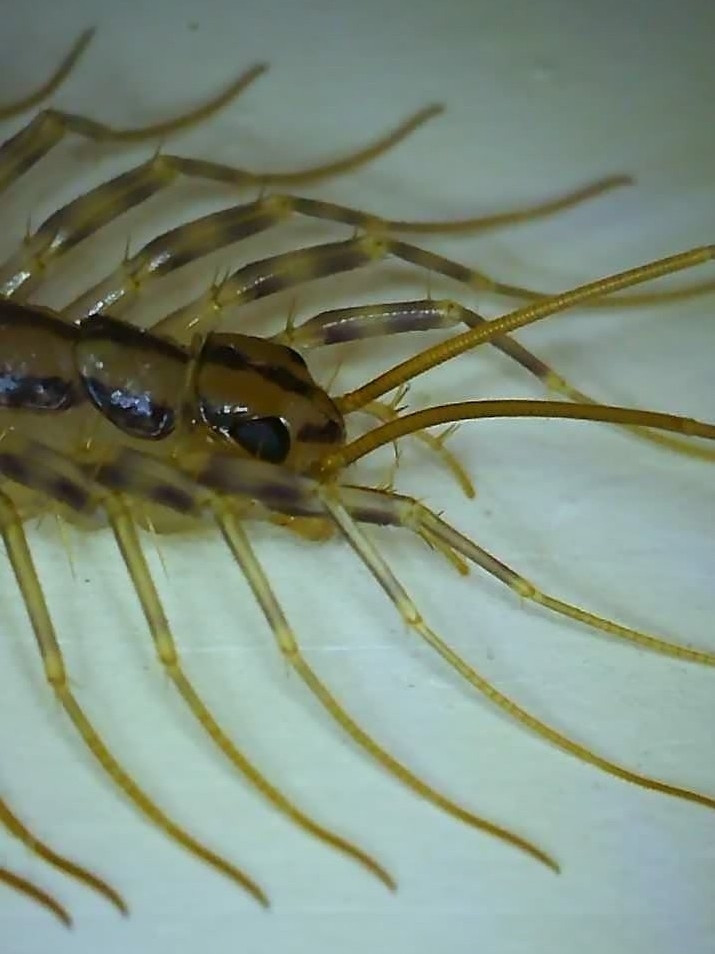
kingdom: Animalia
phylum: Arthropoda
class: Chilopoda
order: Scutigeromorpha
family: Scutigeridae
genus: Scutigera
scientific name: Scutigera coleoptrata
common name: House centipede
